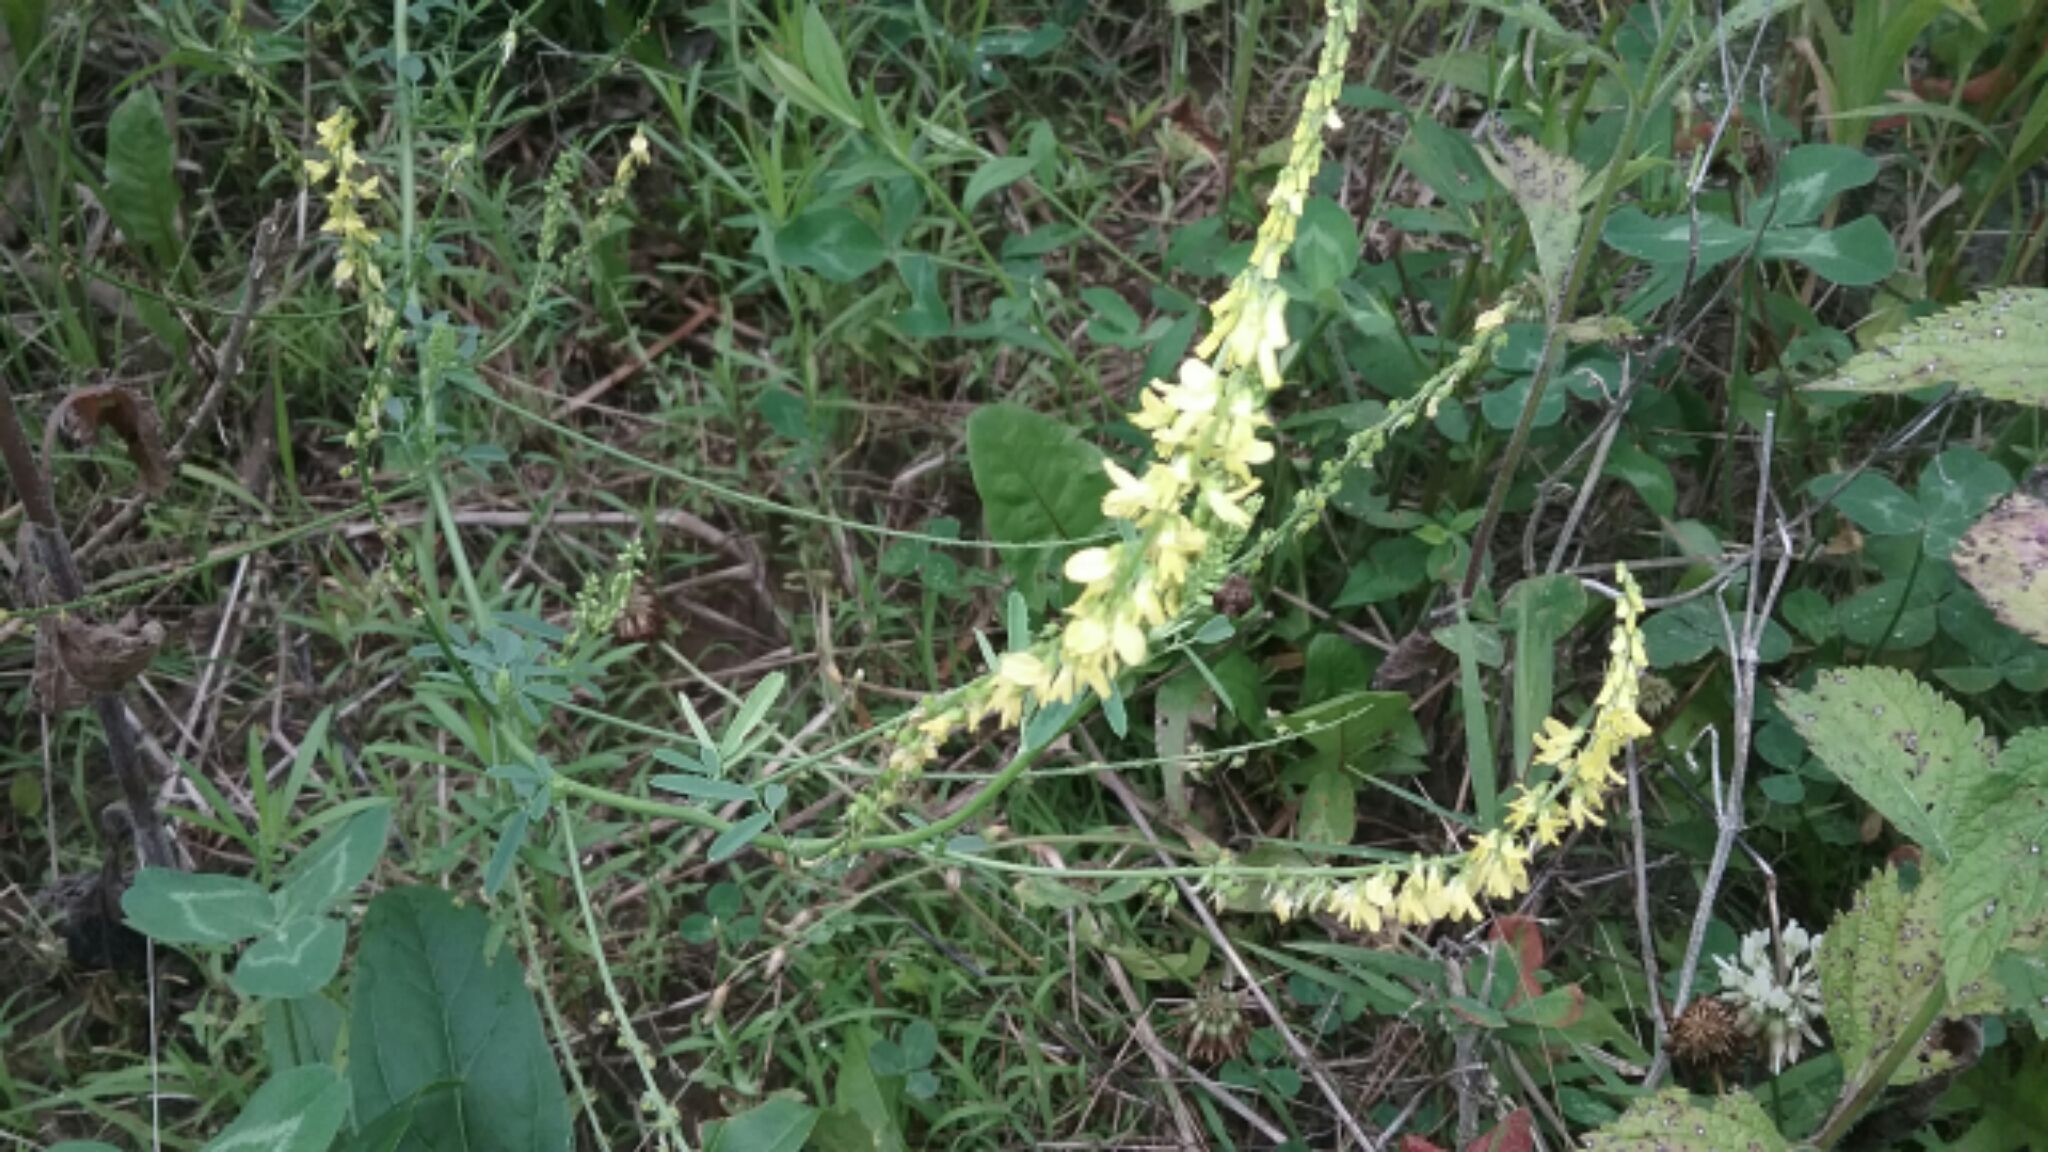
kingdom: Plantae
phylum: Tracheophyta
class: Magnoliopsida
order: Fabales
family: Fabaceae
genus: Melilotus
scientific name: Melilotus officinalis
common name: Sweetclover
